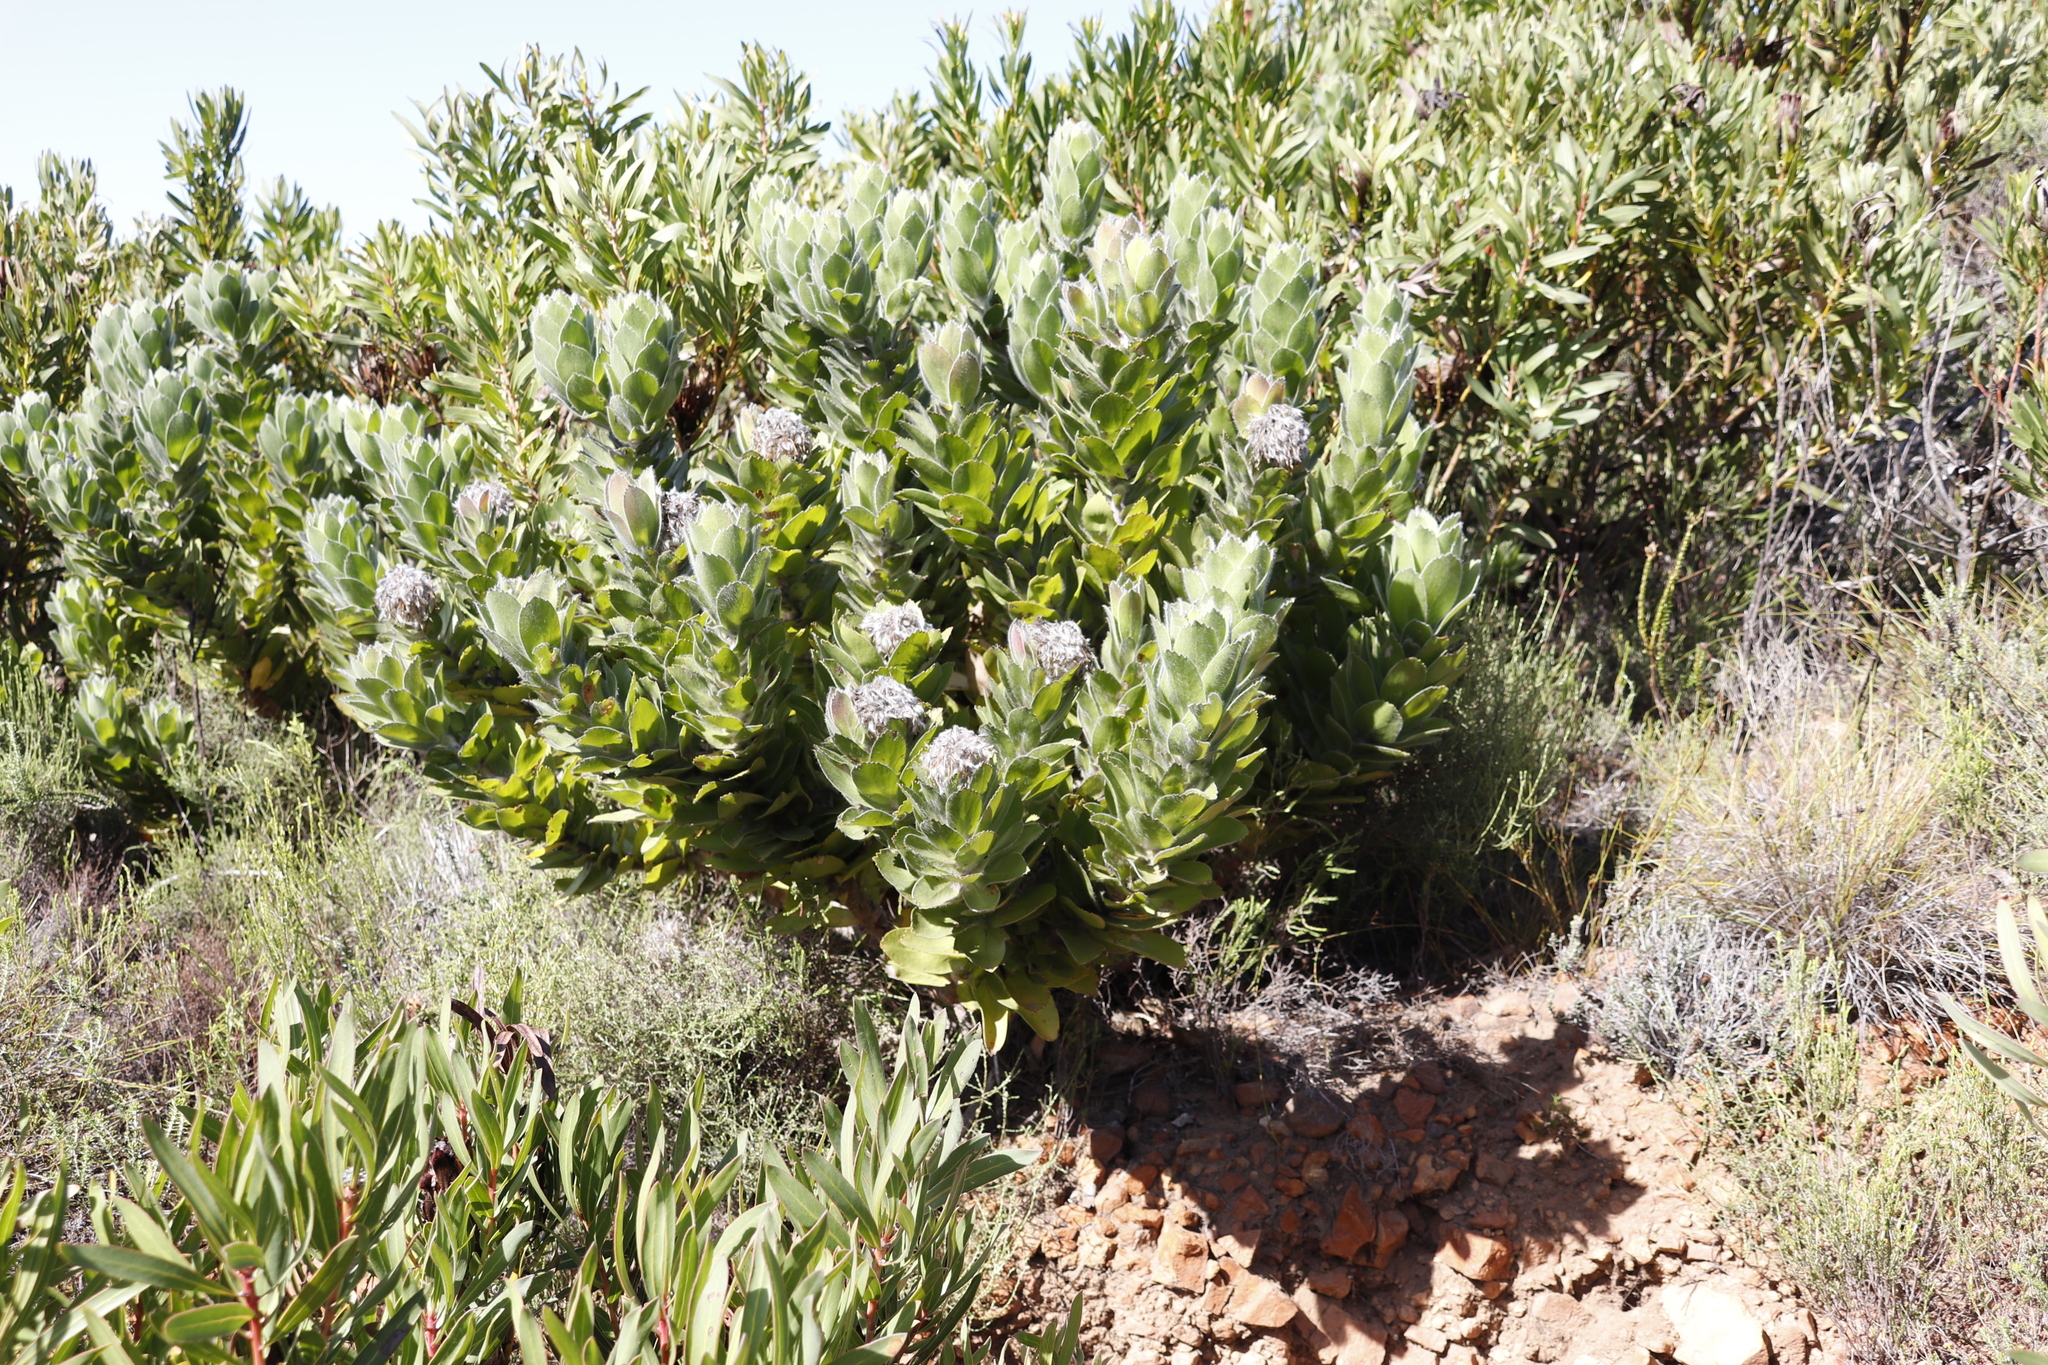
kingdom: Plantae
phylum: Tracheophyta
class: Magnoliopsida
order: Proteales
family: Proteaceae
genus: Leucospermum
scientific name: Leucospermum conocarpodendron
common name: Tree pincushion
